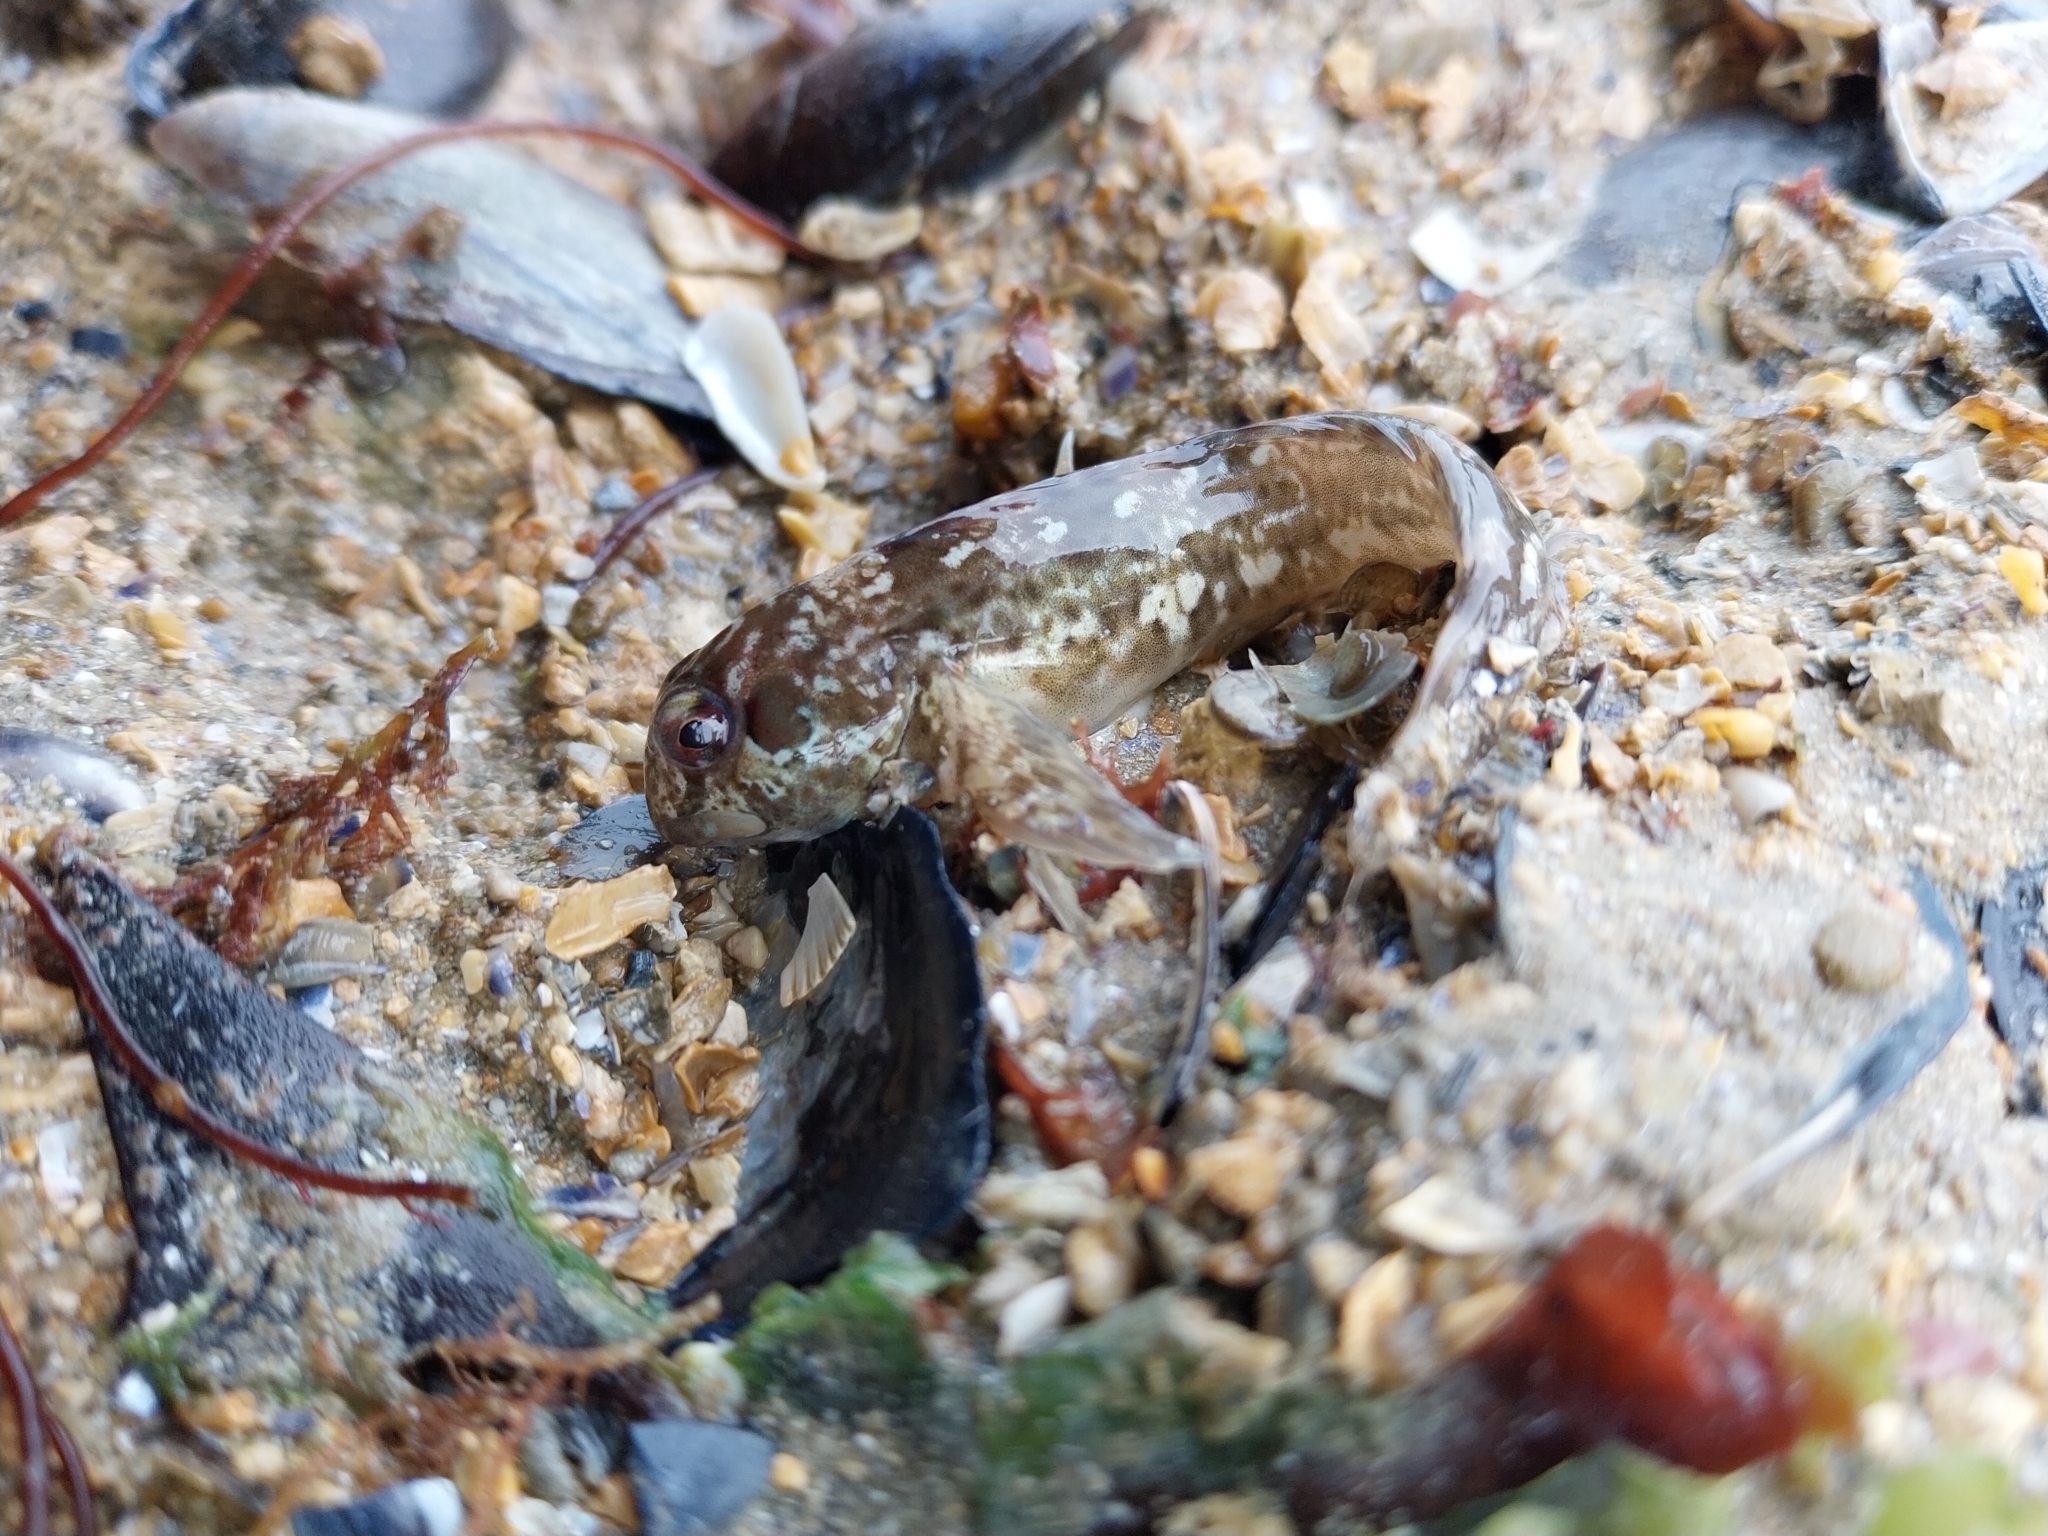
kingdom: Animalia
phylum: Chordata
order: Perciformes
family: Blenniidae
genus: Lipophrys
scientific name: Lipophrys pholis
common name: Shanny
